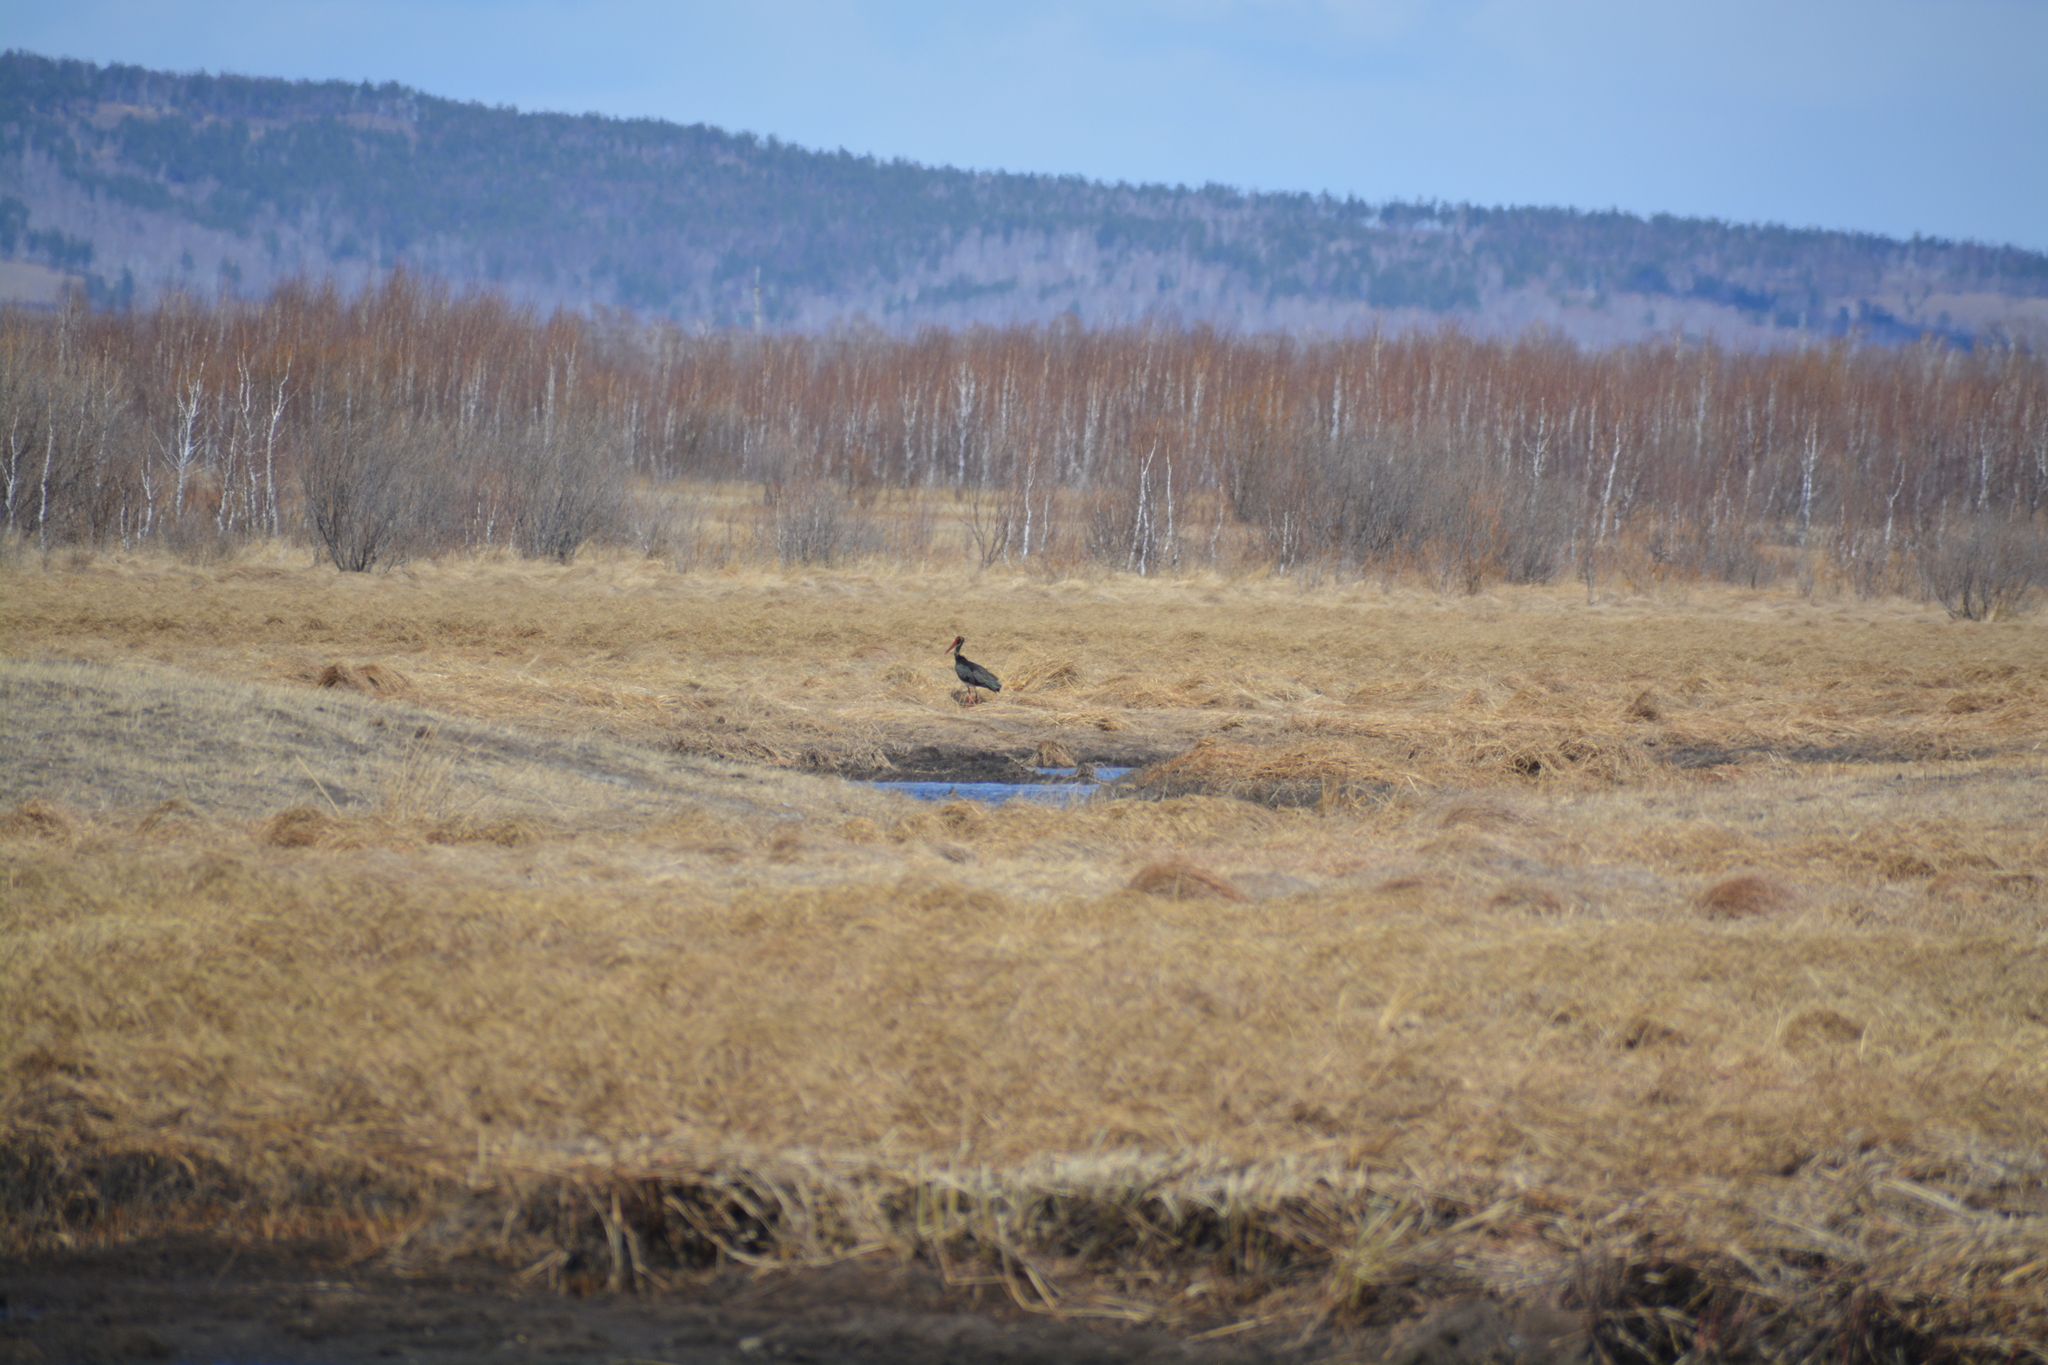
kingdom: Animalia
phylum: Chordata
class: Aves
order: Ciconiiformes
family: Ciconiidae
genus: Ciconia
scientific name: Ciconia nigra
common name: Black stork
